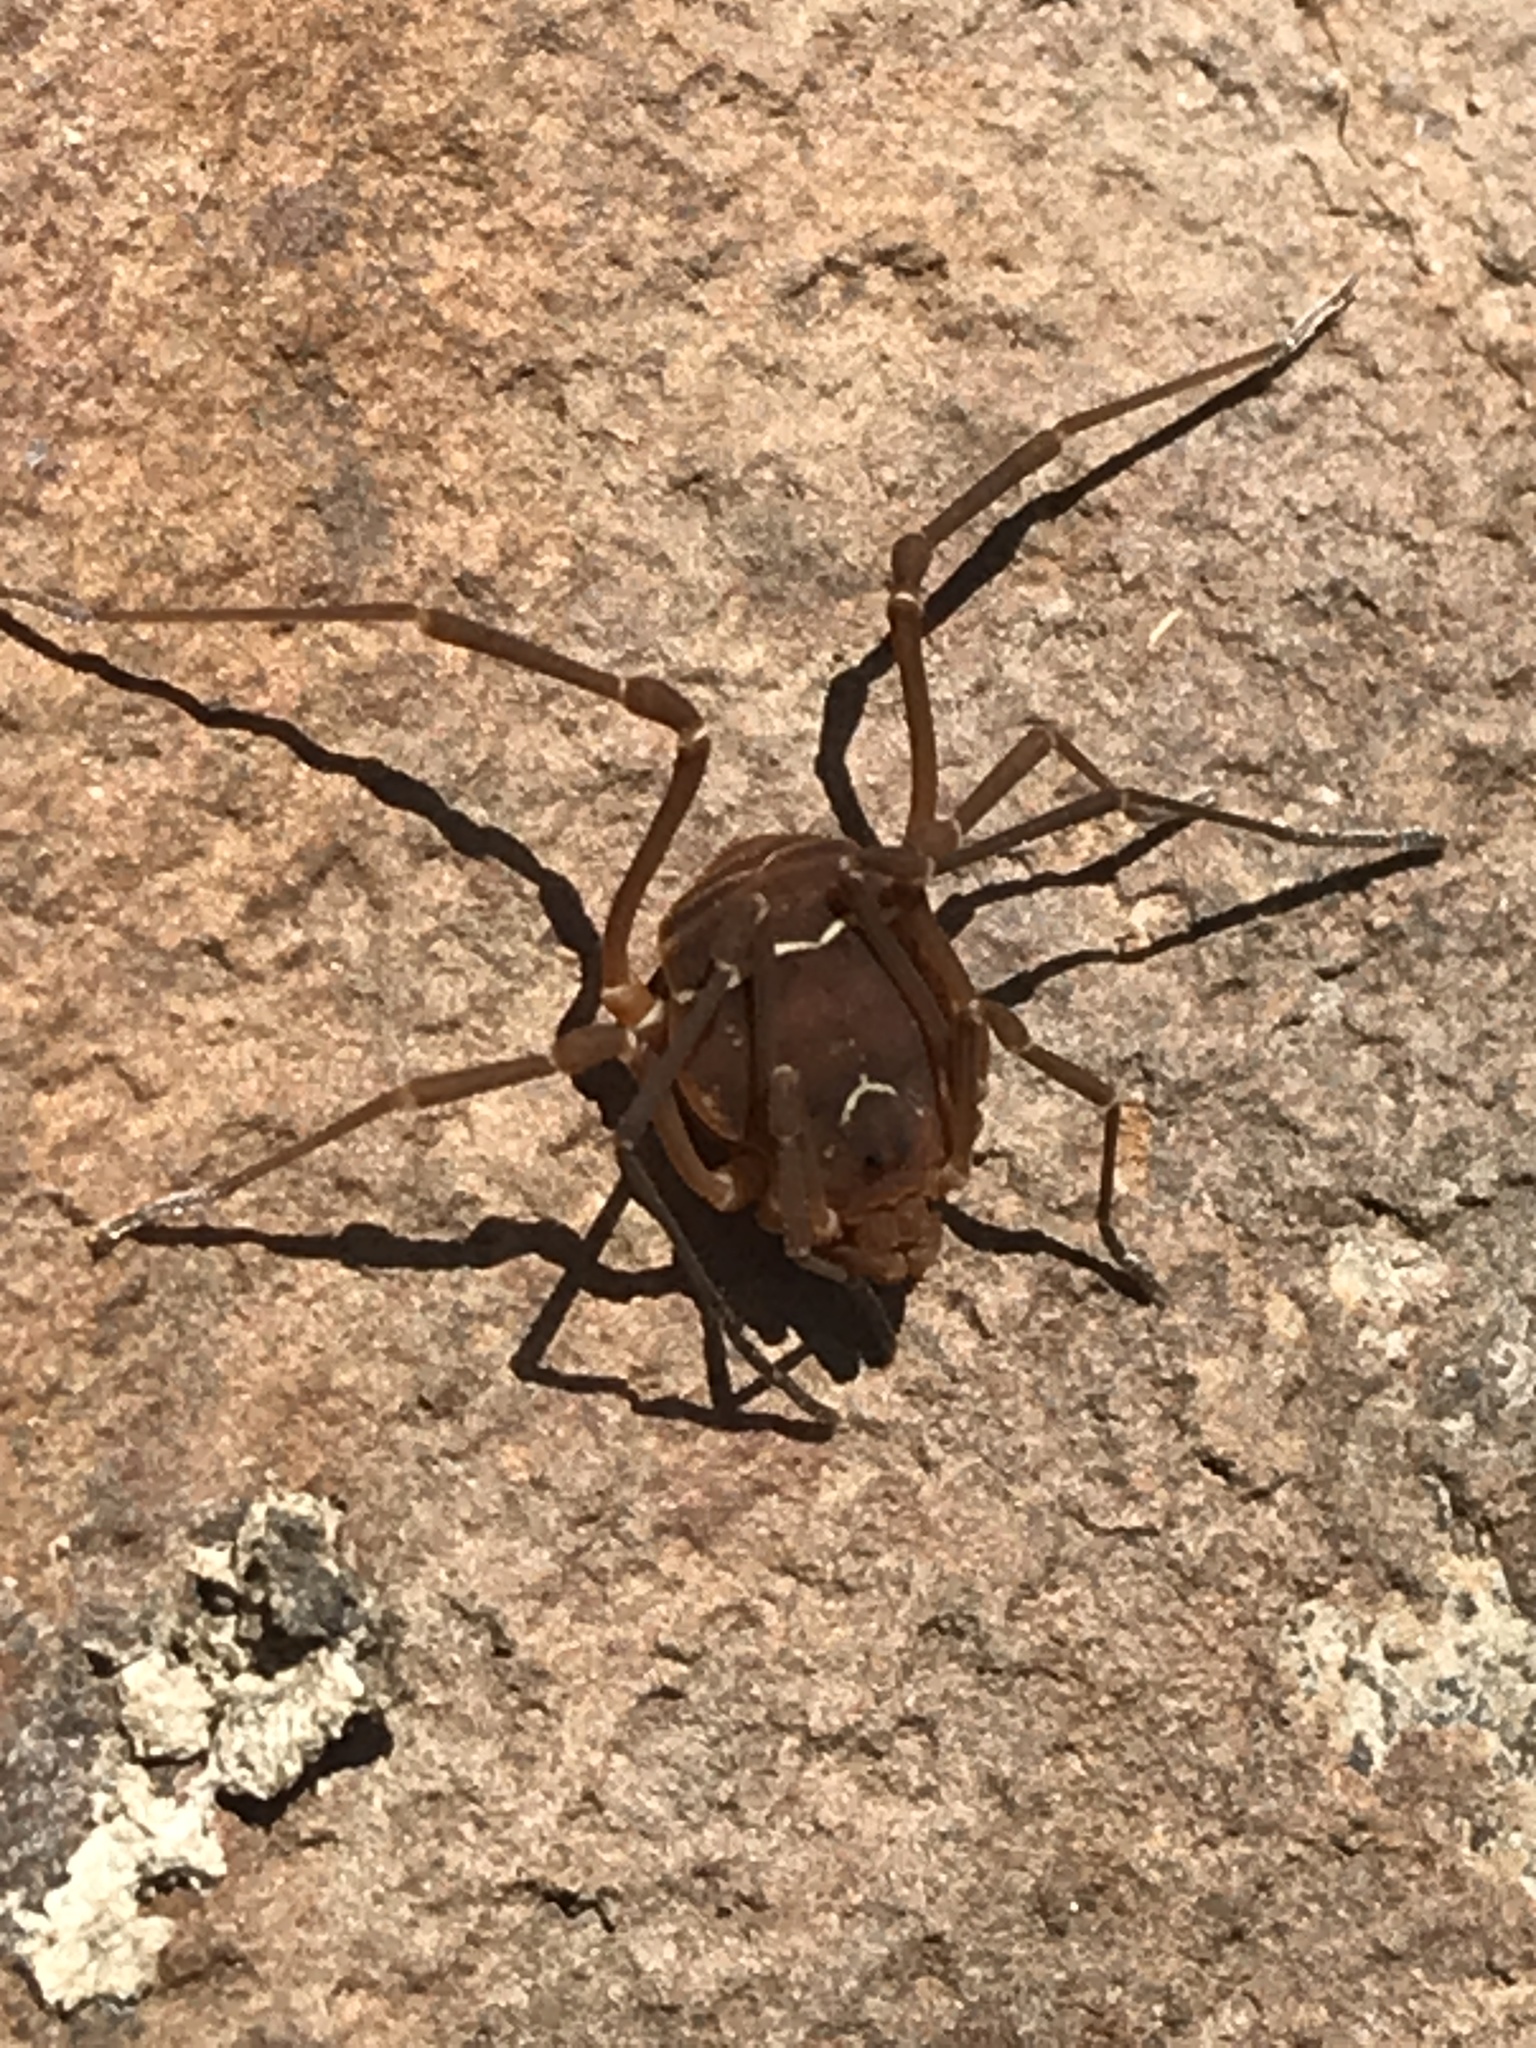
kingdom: Animalia
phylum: Arthropoda
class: Arachnida
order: Opiliones
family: Cosmetidae
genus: Libitioides
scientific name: Libitioides sayi
